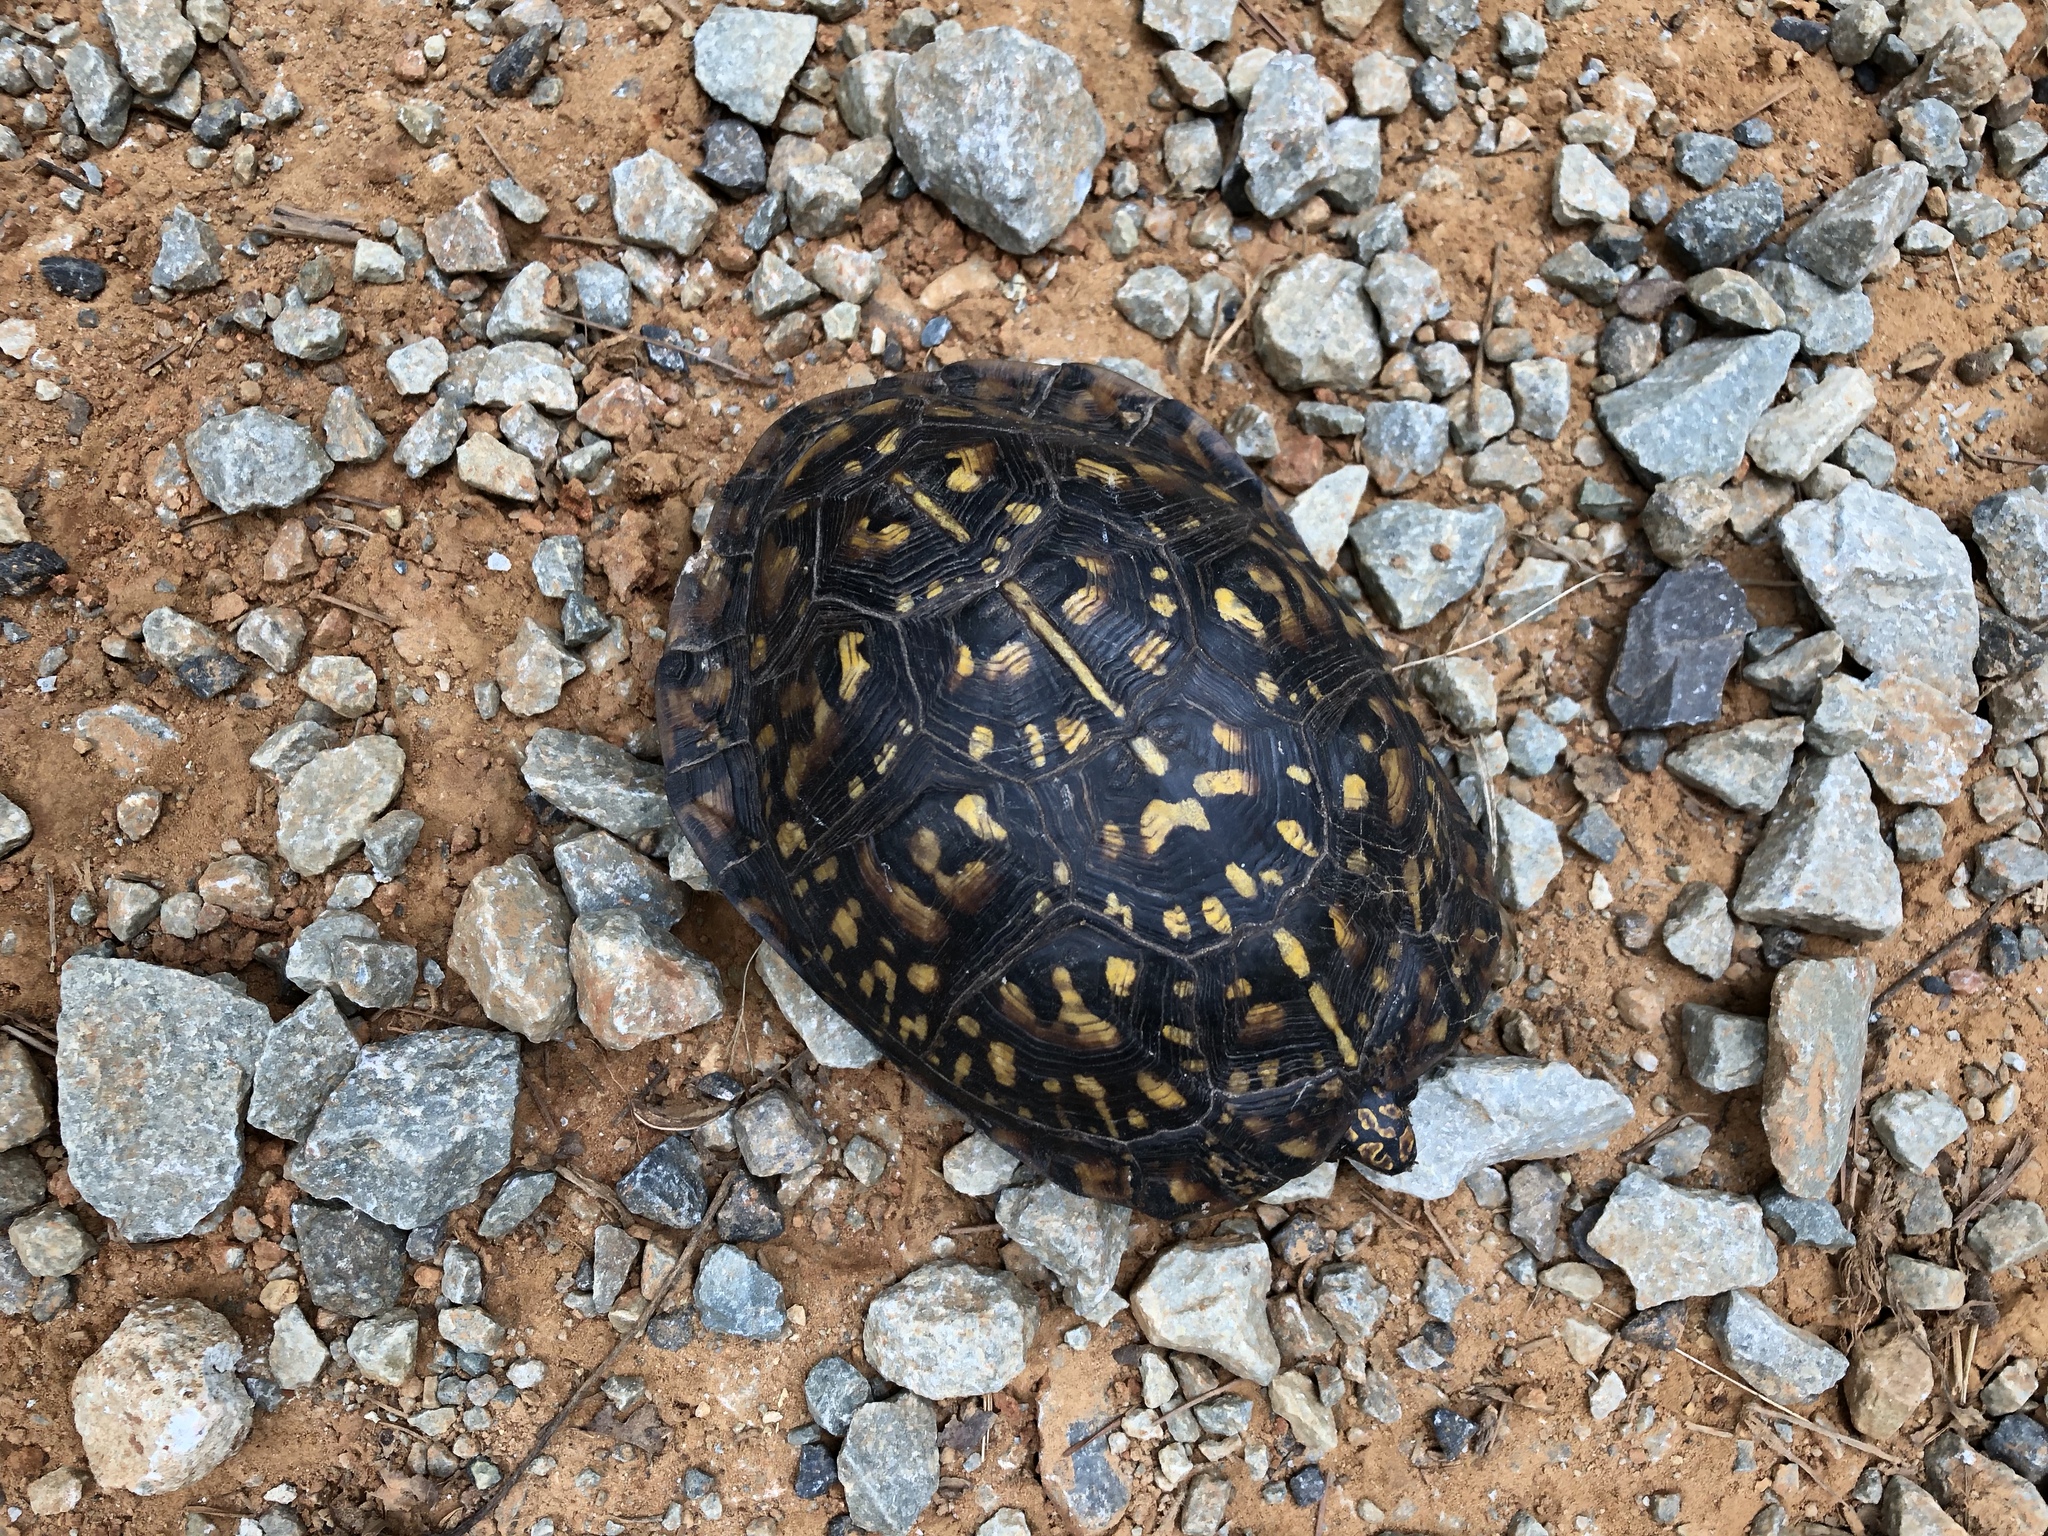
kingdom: Animalia
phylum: Chordata
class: Testudines
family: Emydidae
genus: Terrapene
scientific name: Terrapene carolina
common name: Common box turtle
